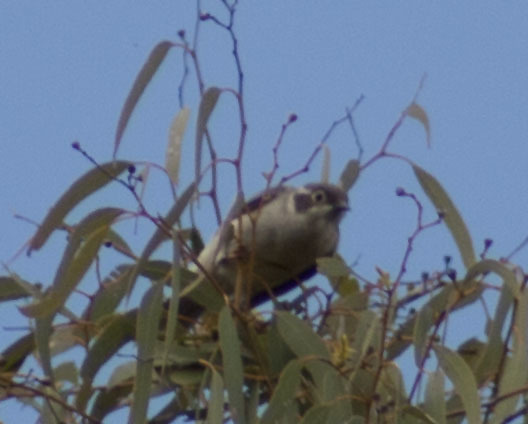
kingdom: Animalia
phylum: Chordata
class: Aves
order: Passeriformes
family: Meliphagidae
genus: Melithreptus
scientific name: Melithreptus brevirostris
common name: Brown-headed honeyeater
